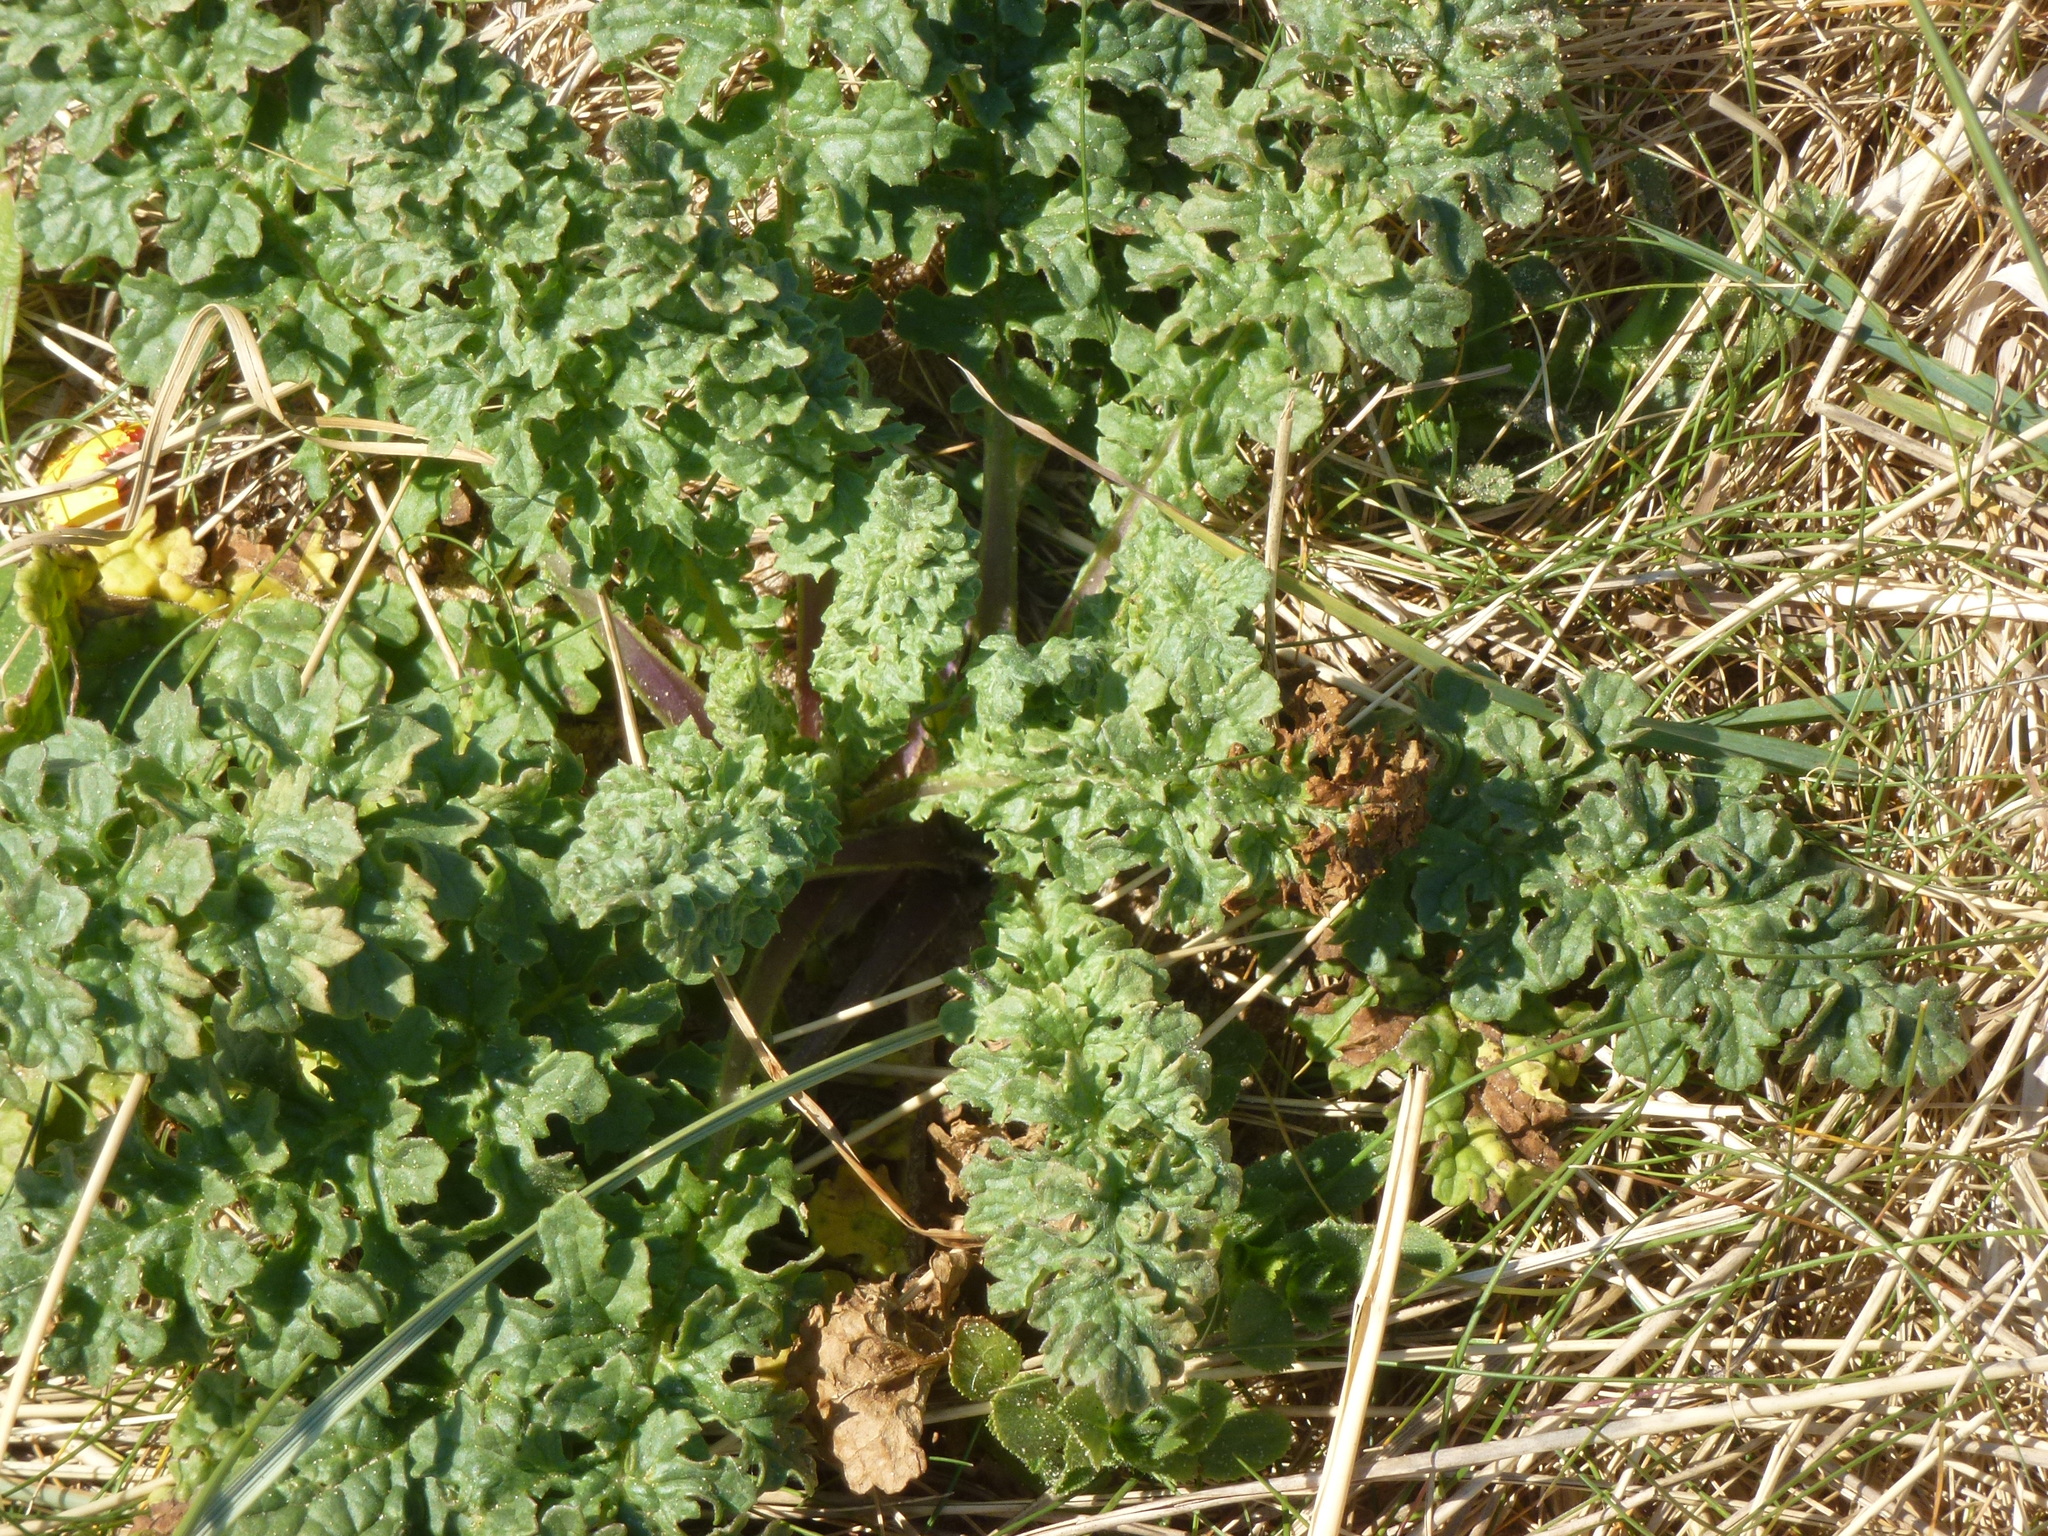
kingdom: Plantae
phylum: Tracheophyta
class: Magnoliopsida
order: Asterales
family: Asteraceae
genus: Jacobaea
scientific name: Jacobaea vulgaris
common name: Stinking willie
